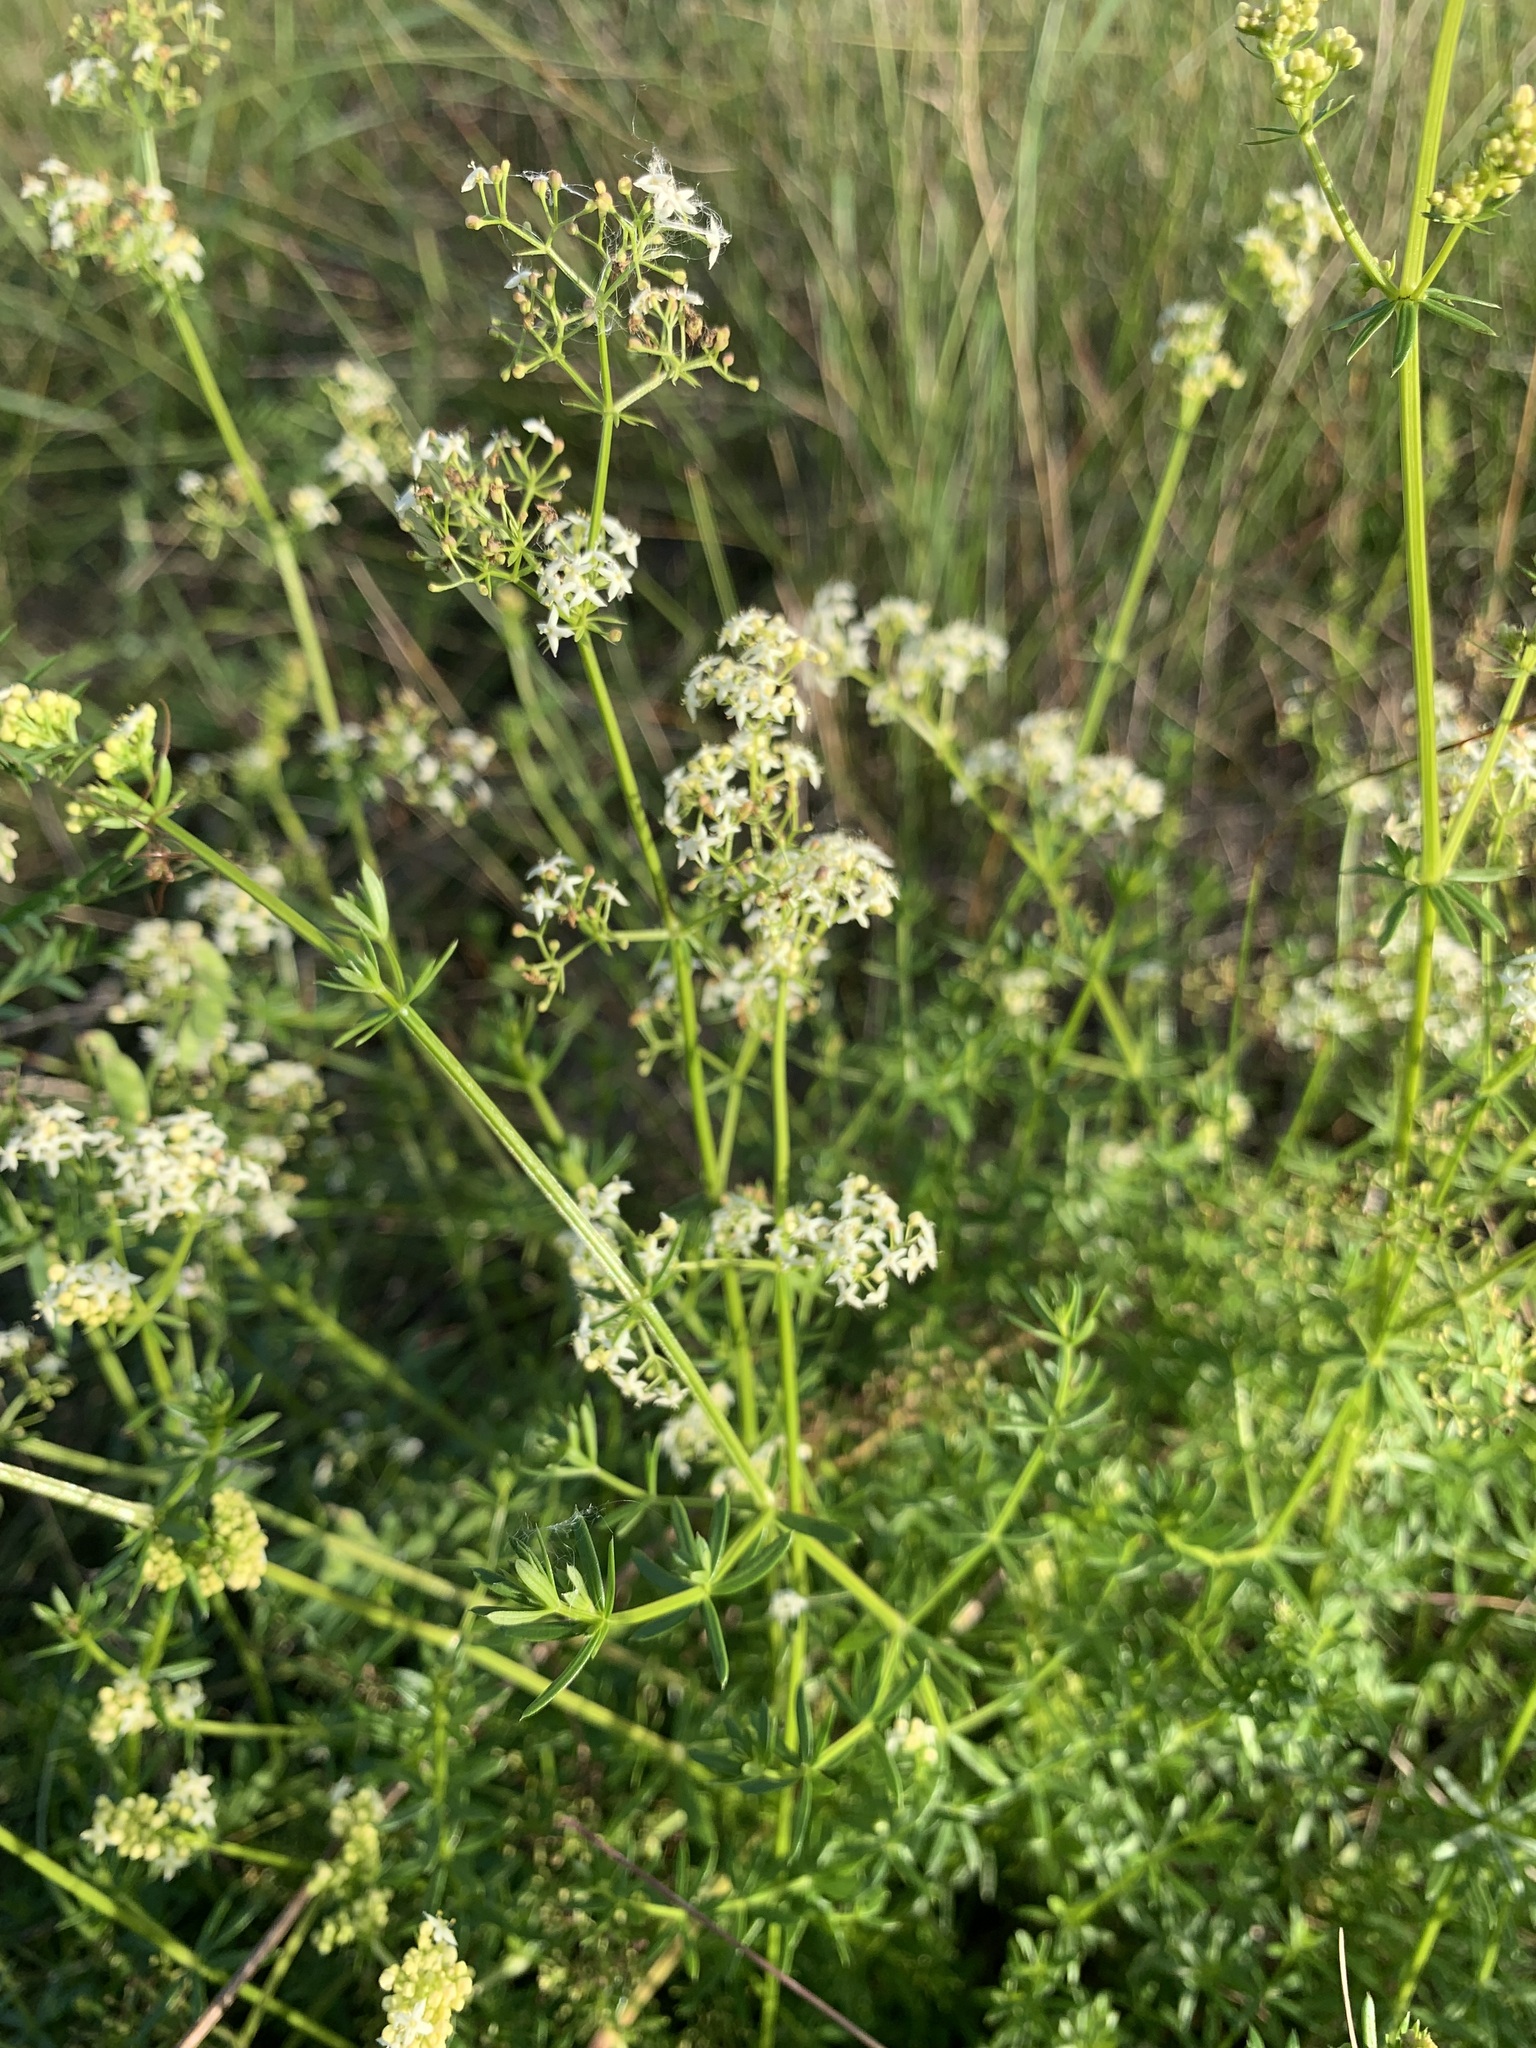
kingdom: Plantae
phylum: Tracheophyta
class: Magnoliopsida
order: Gentianales
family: Rubiaceae
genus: Galium
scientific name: Galium mollugo
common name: Hedge bedstraw
